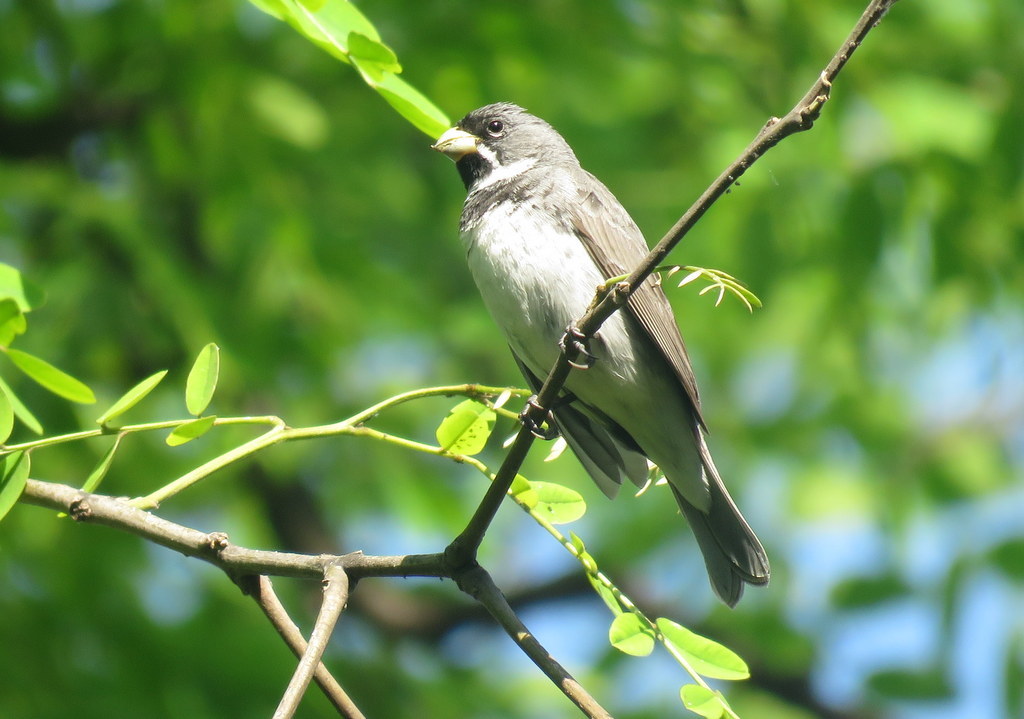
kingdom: Animalia
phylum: Chordata
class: Aves
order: Passeriformes
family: Thraupidae
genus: Sporophila
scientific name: Sporophila caerulescens
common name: Double-collared seedeater
